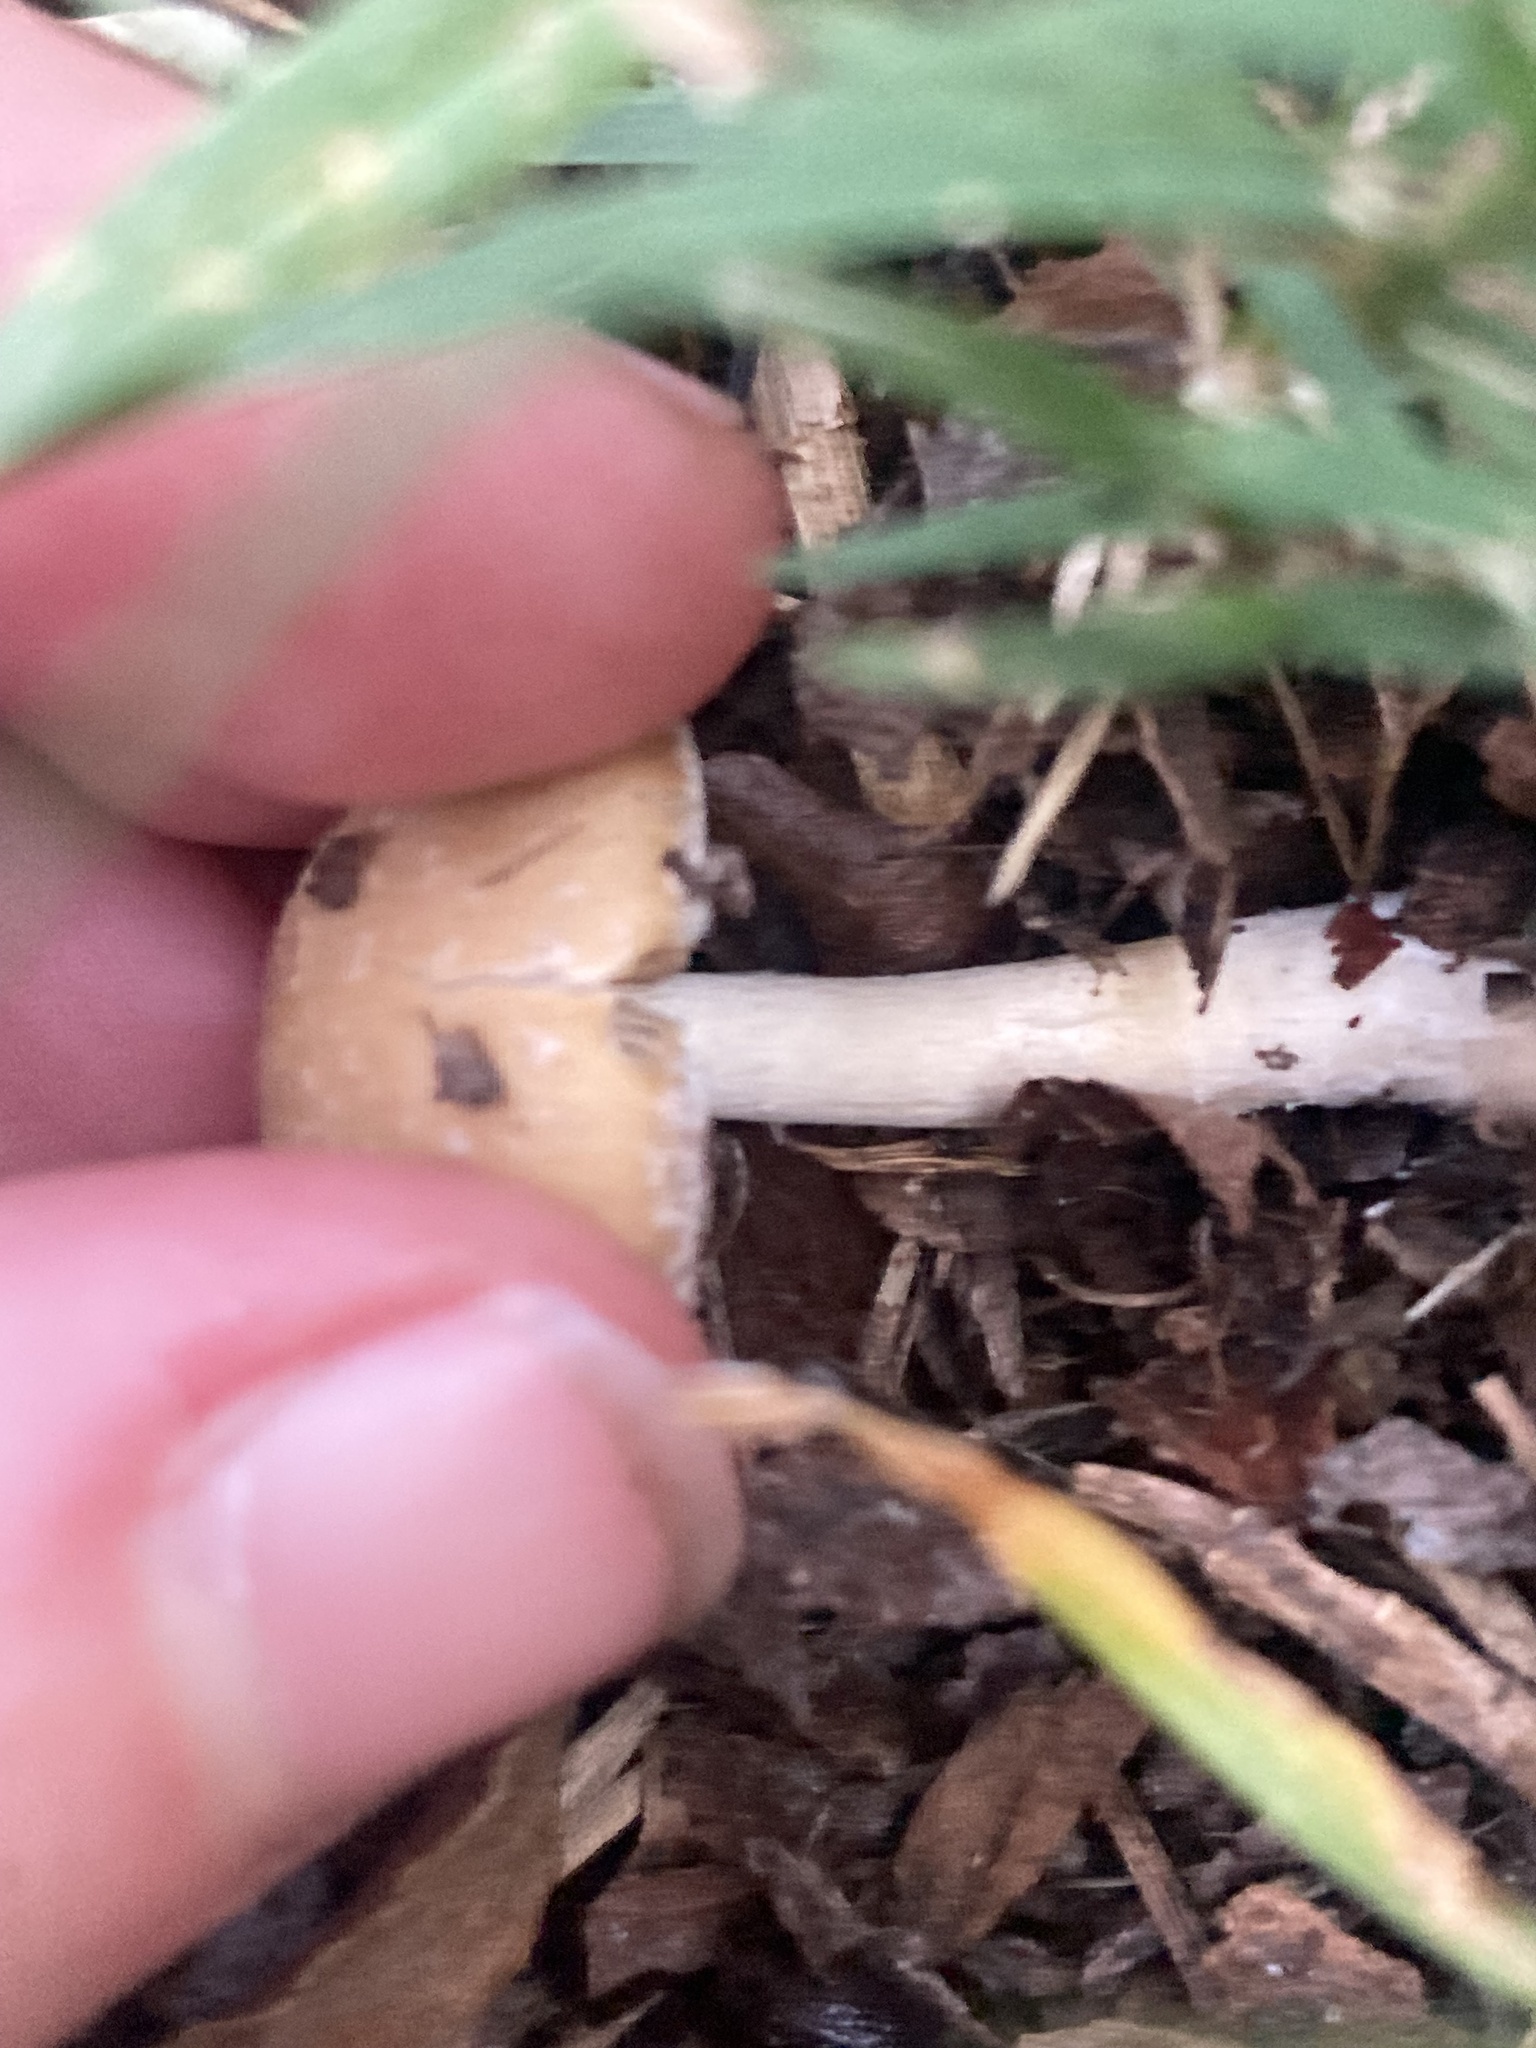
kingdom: Fungi
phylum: Basidiomycota
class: Agaricomycetes
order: Agaricales
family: Psathyrellaceae
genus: Candolleomyces
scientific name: Candolleomyces candolleanus
